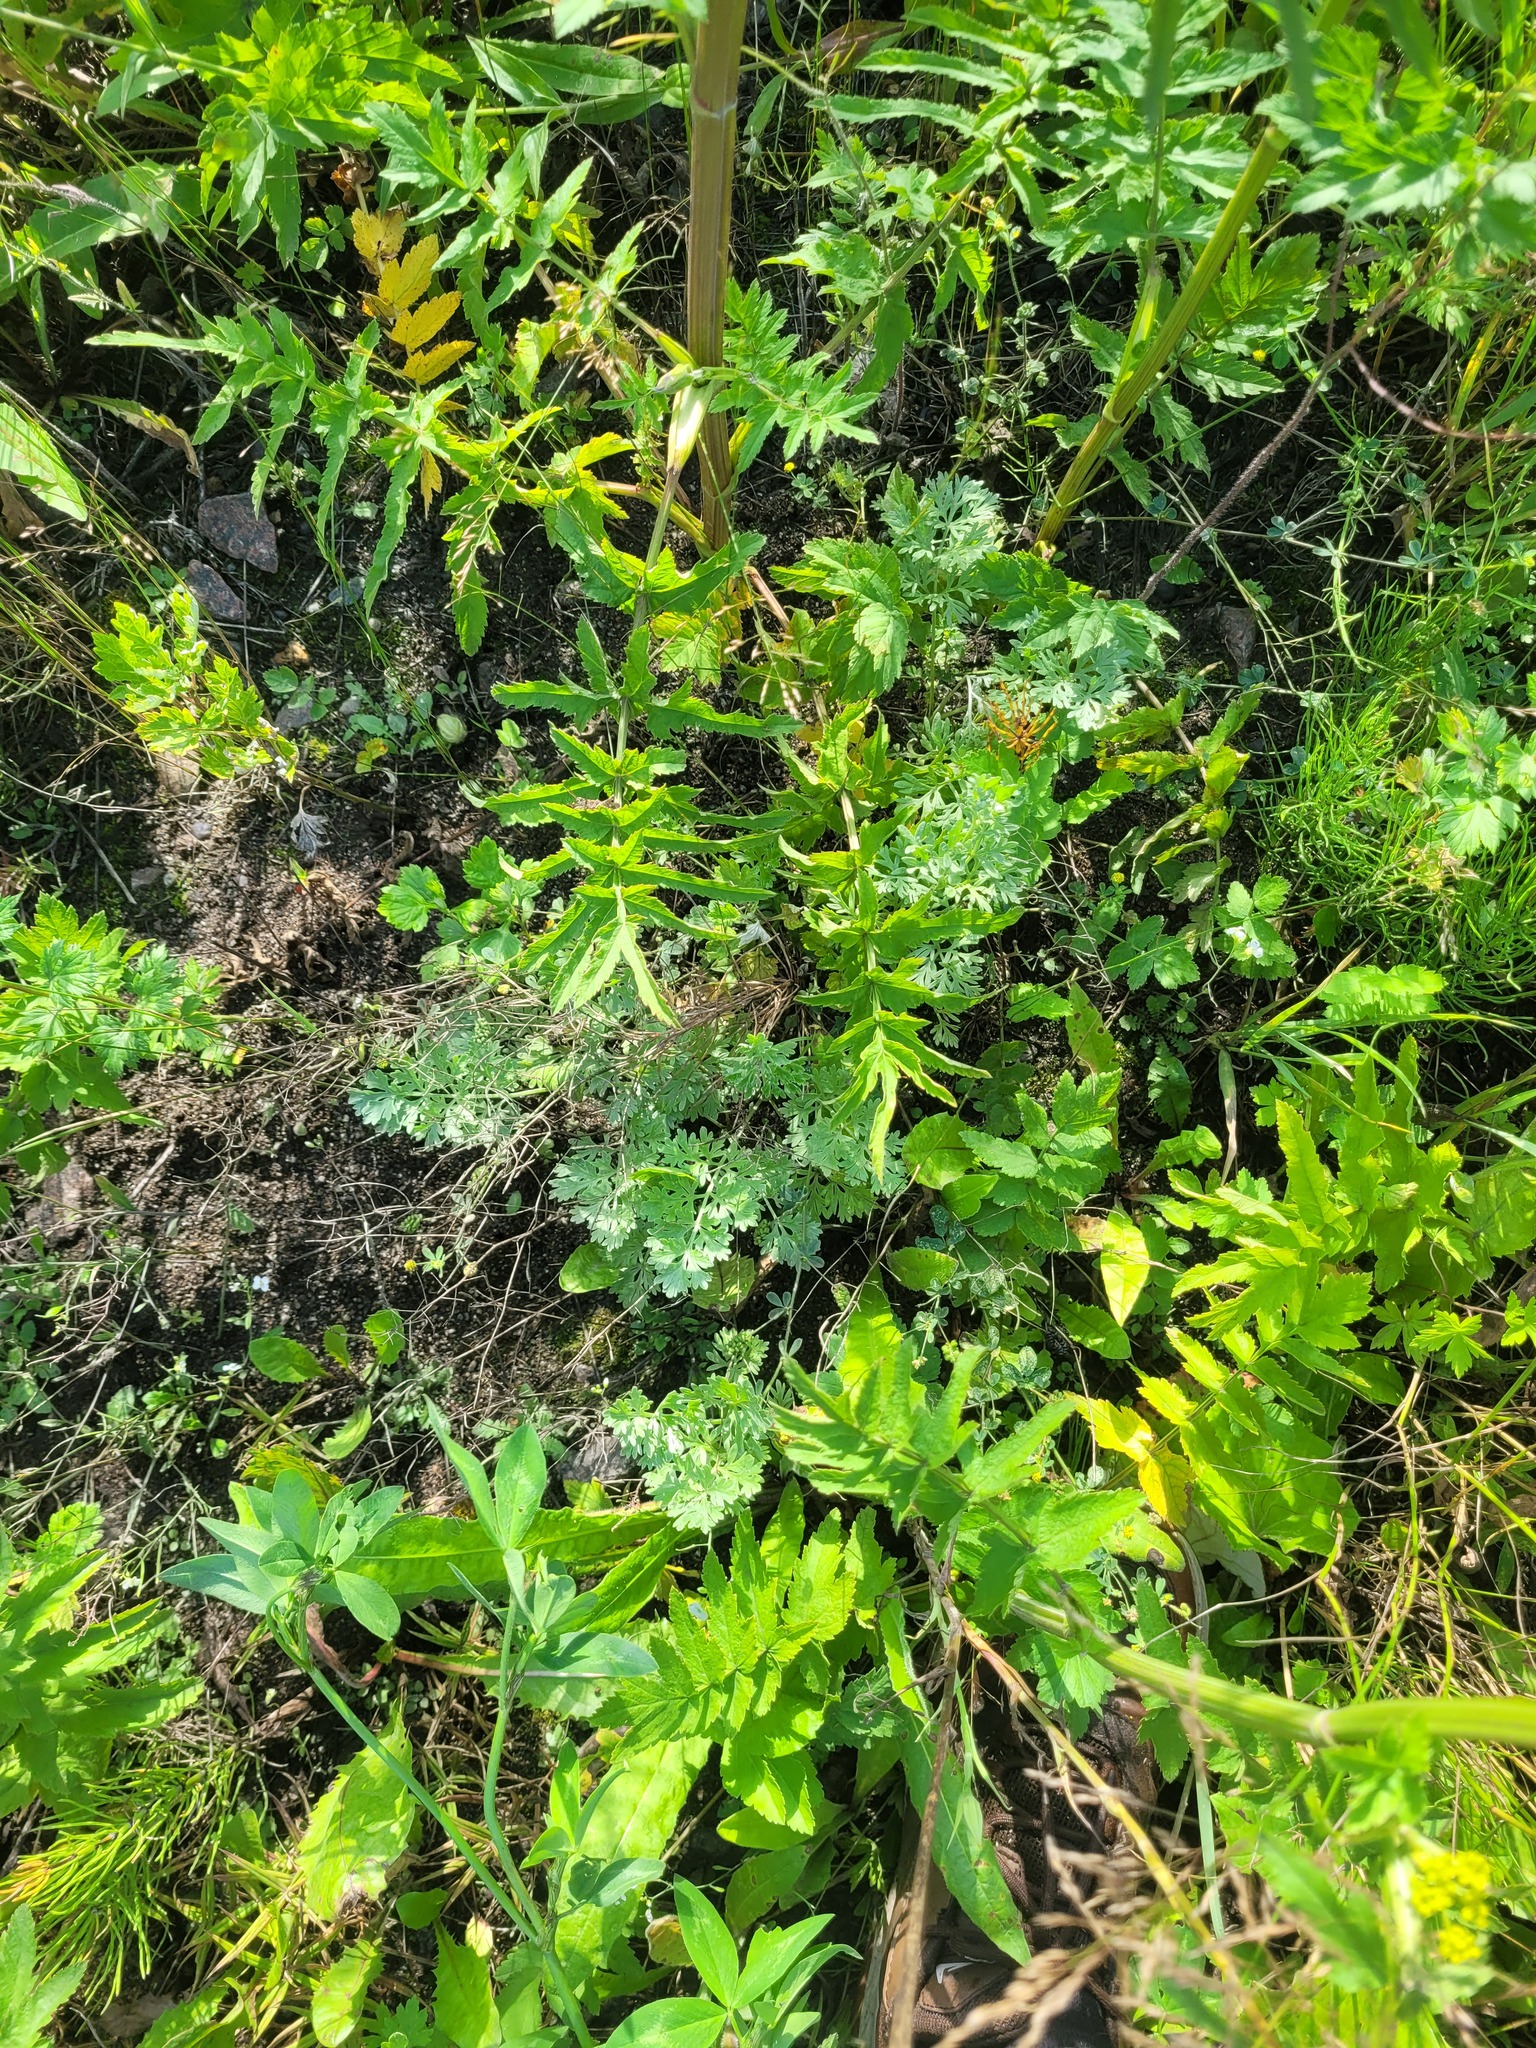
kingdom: Plantae
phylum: Tracheophyta
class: Magnoliopsida
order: Asterales
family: Asteraceae
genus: Artemisia
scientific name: Artemisia absinthium
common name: Wormwood
